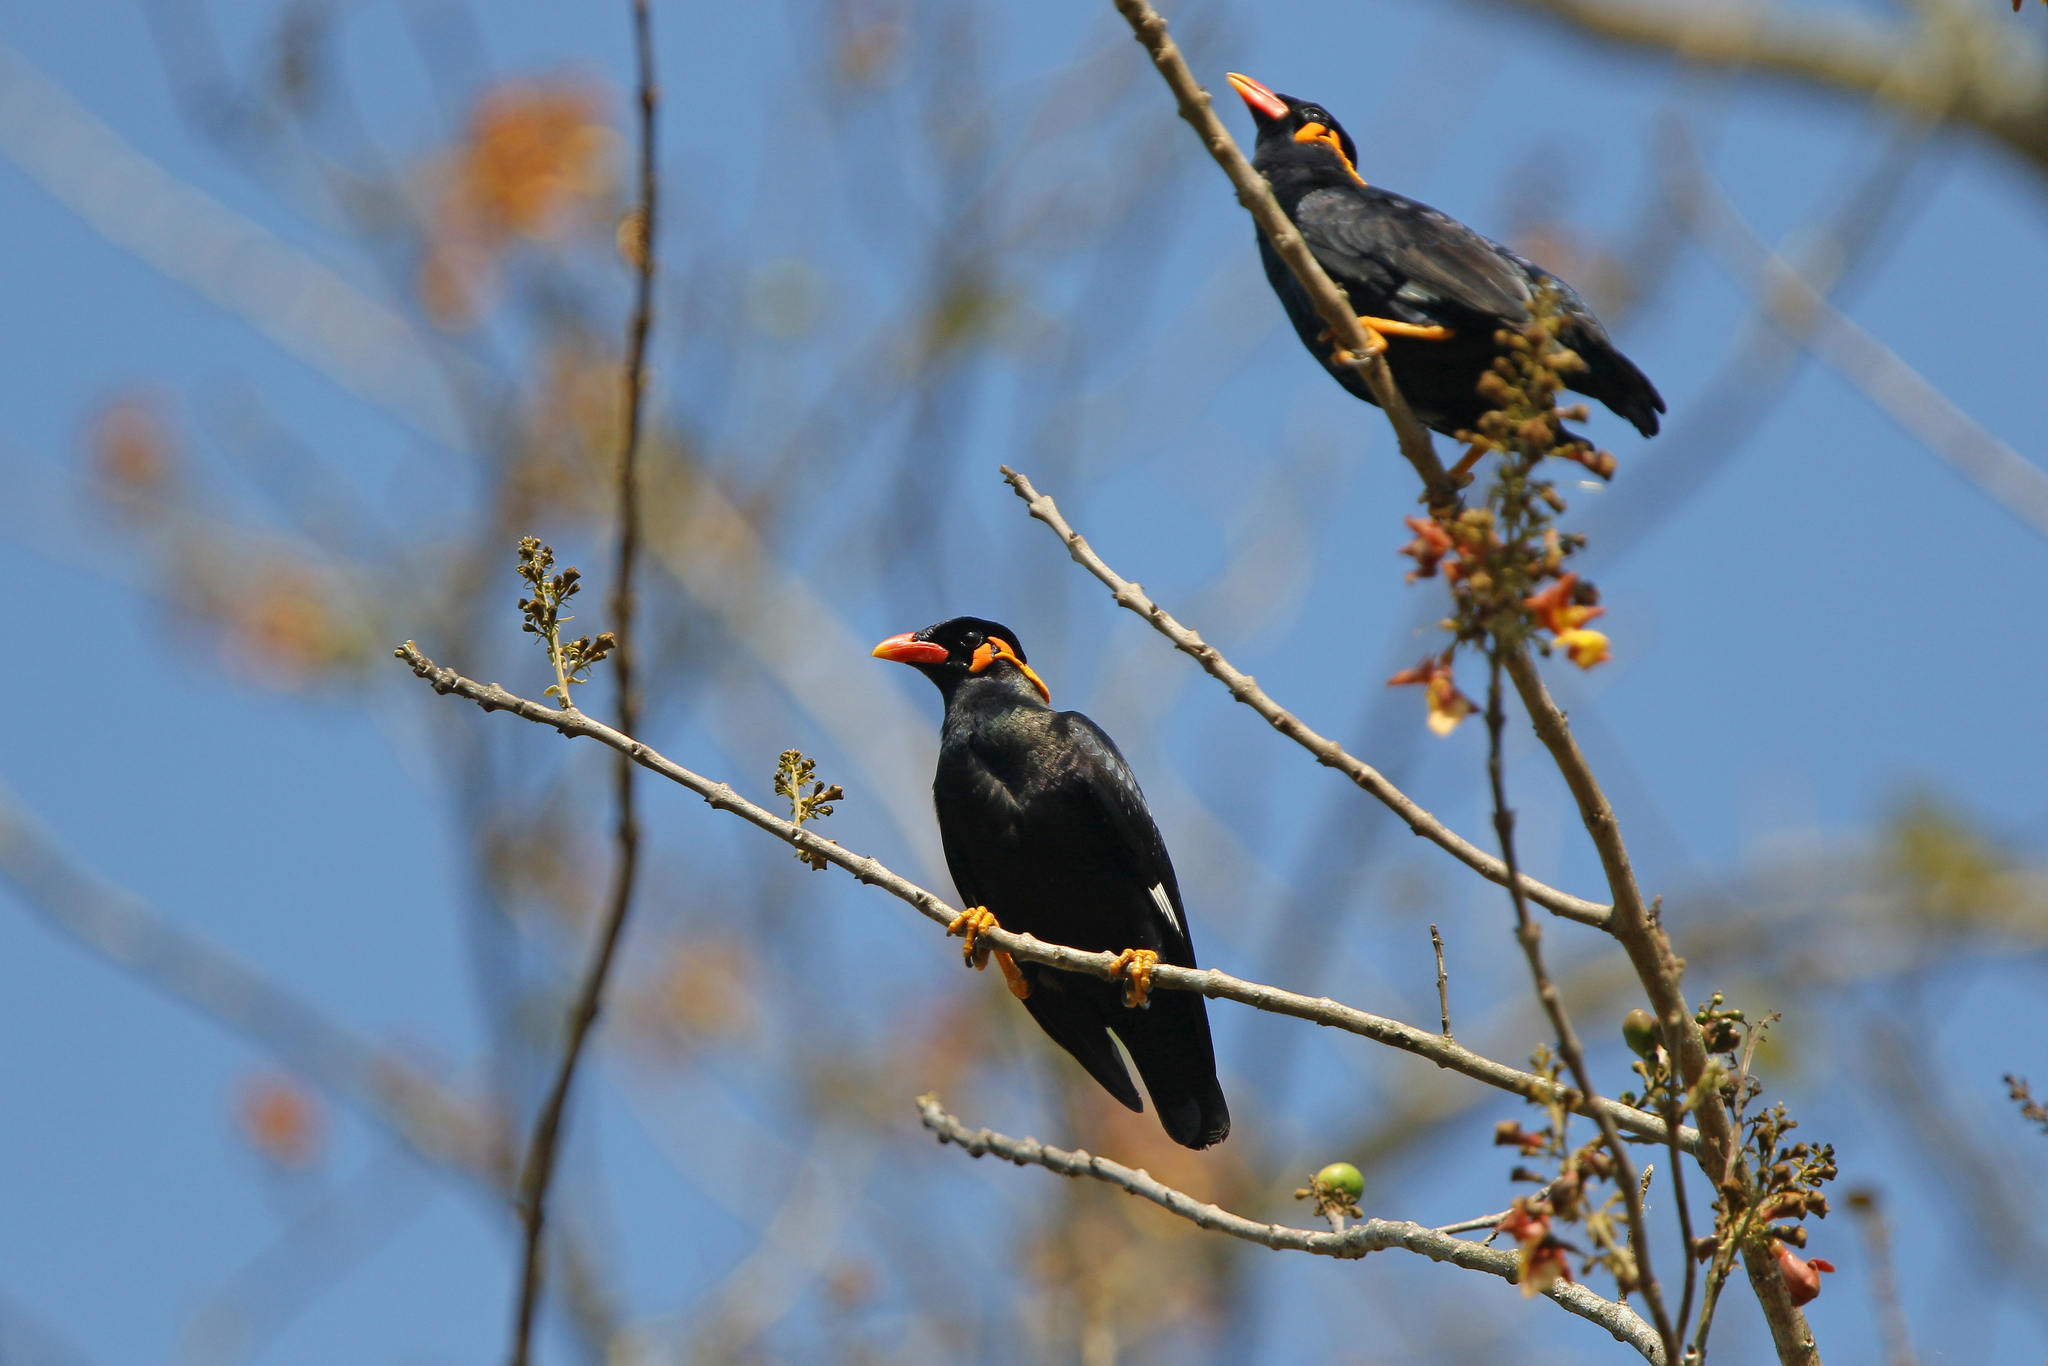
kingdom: Animalia
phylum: Chordata
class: Aves
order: Passeriformes
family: Sturnidae
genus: Gracula
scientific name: Gracula religiosa
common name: Common hill myna
